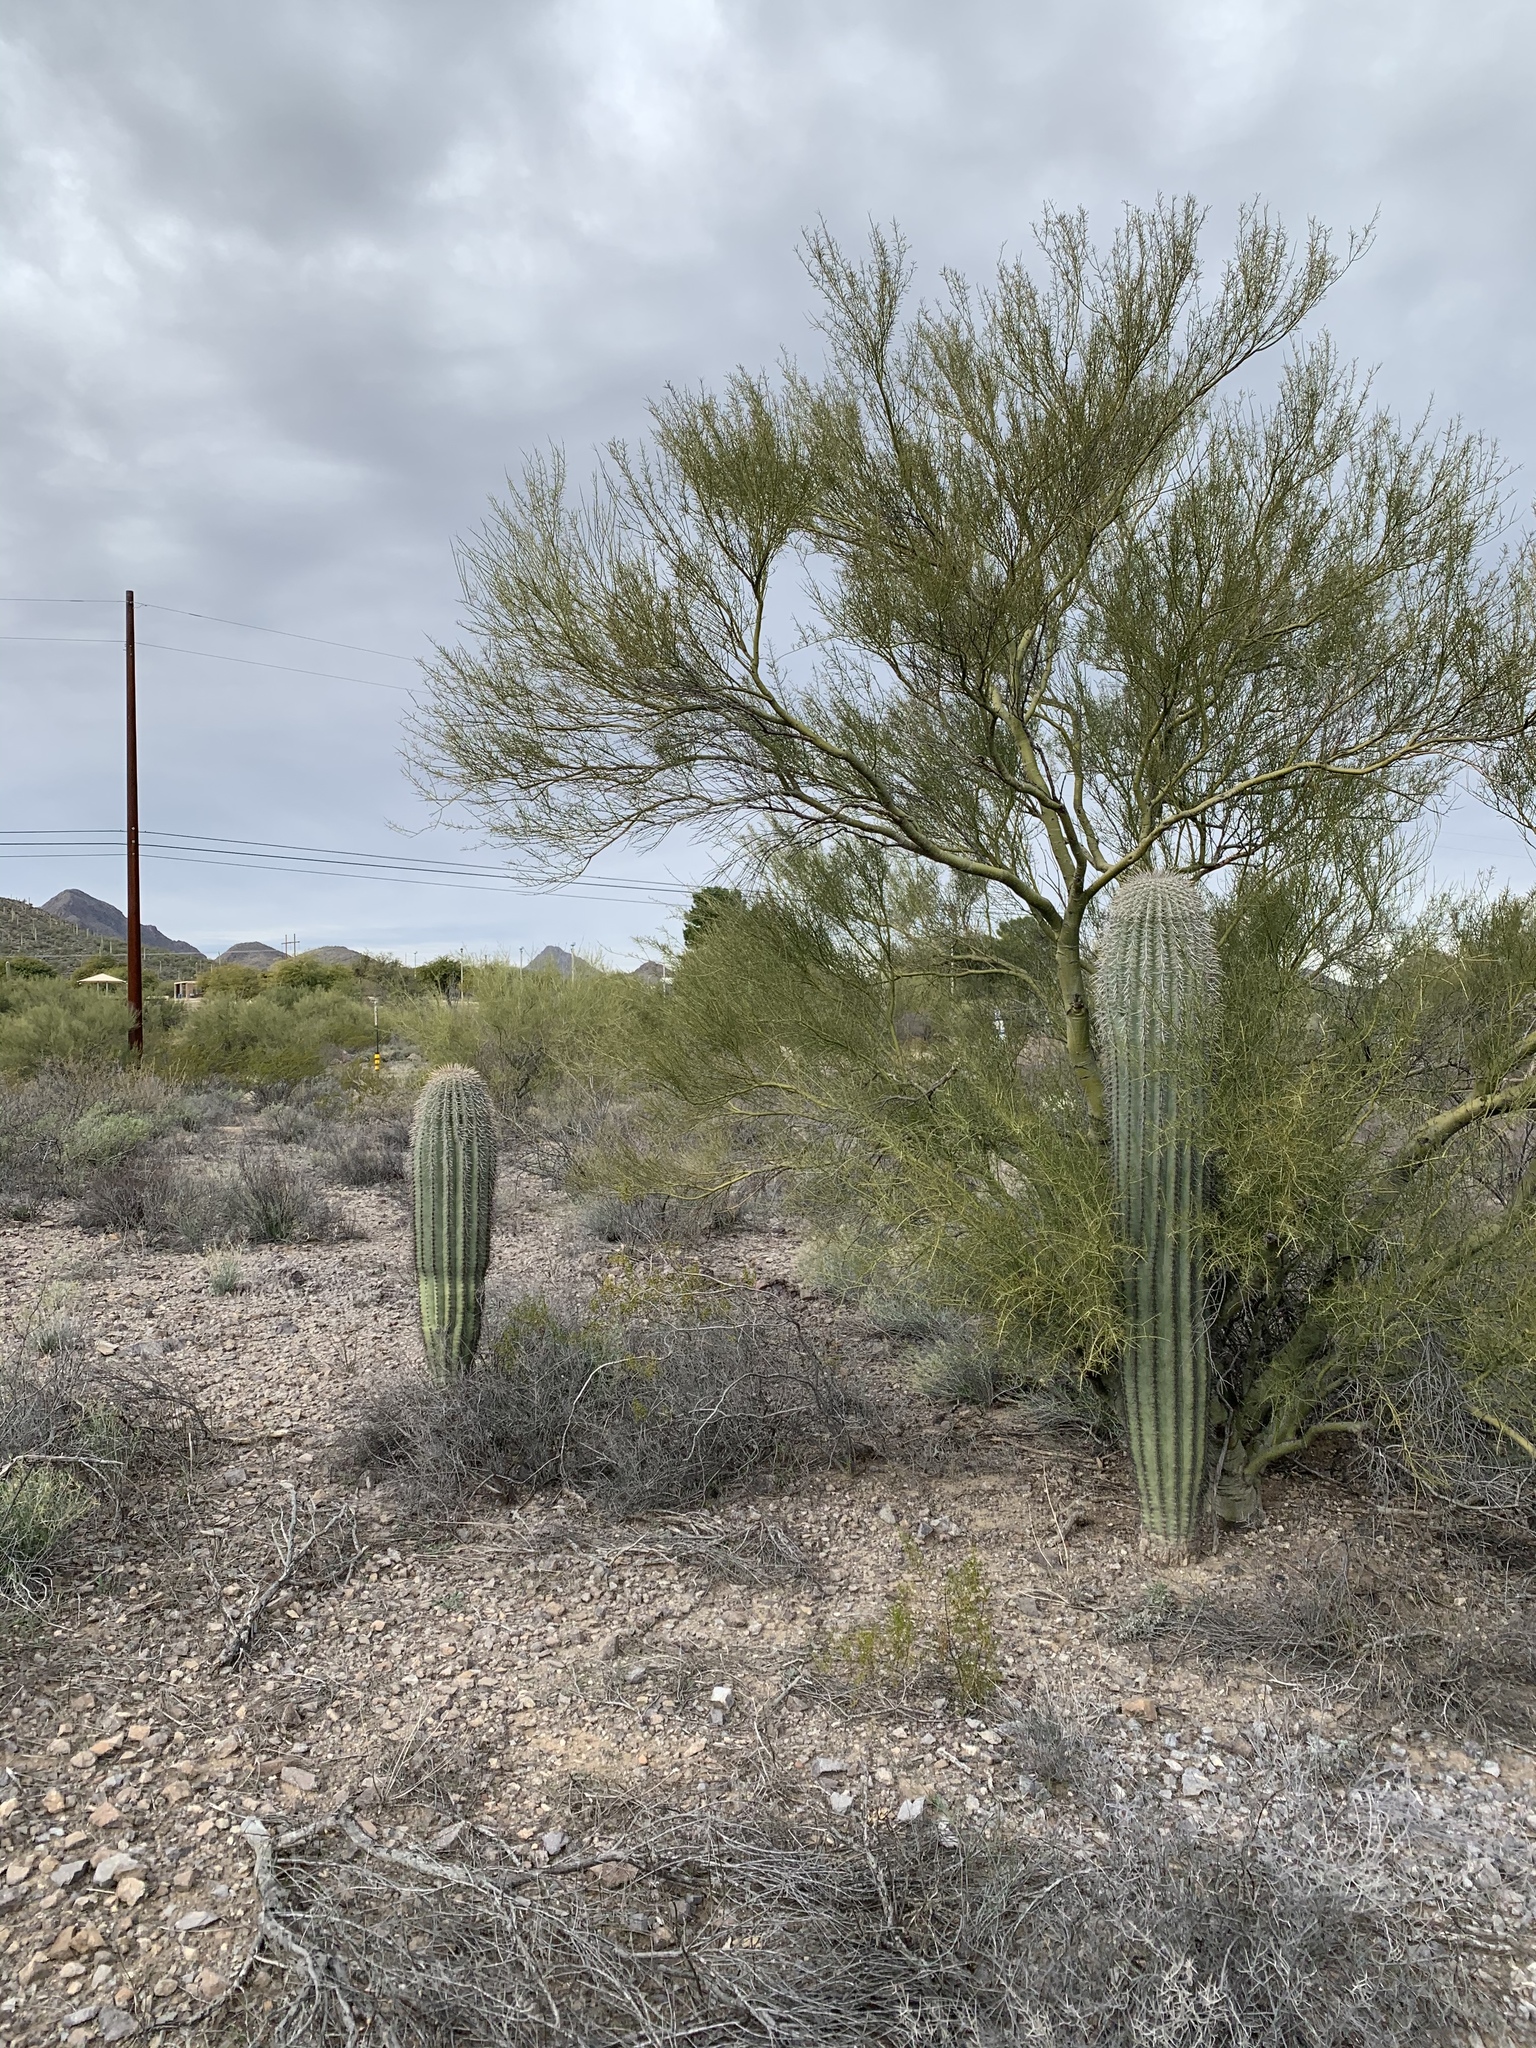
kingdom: Plantae
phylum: Tracheophyta
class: Magnoliopsida
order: Caryophyllales
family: Cactaceae
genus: Carnegiea
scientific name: Carnegiea gigantea
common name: Saguaro
